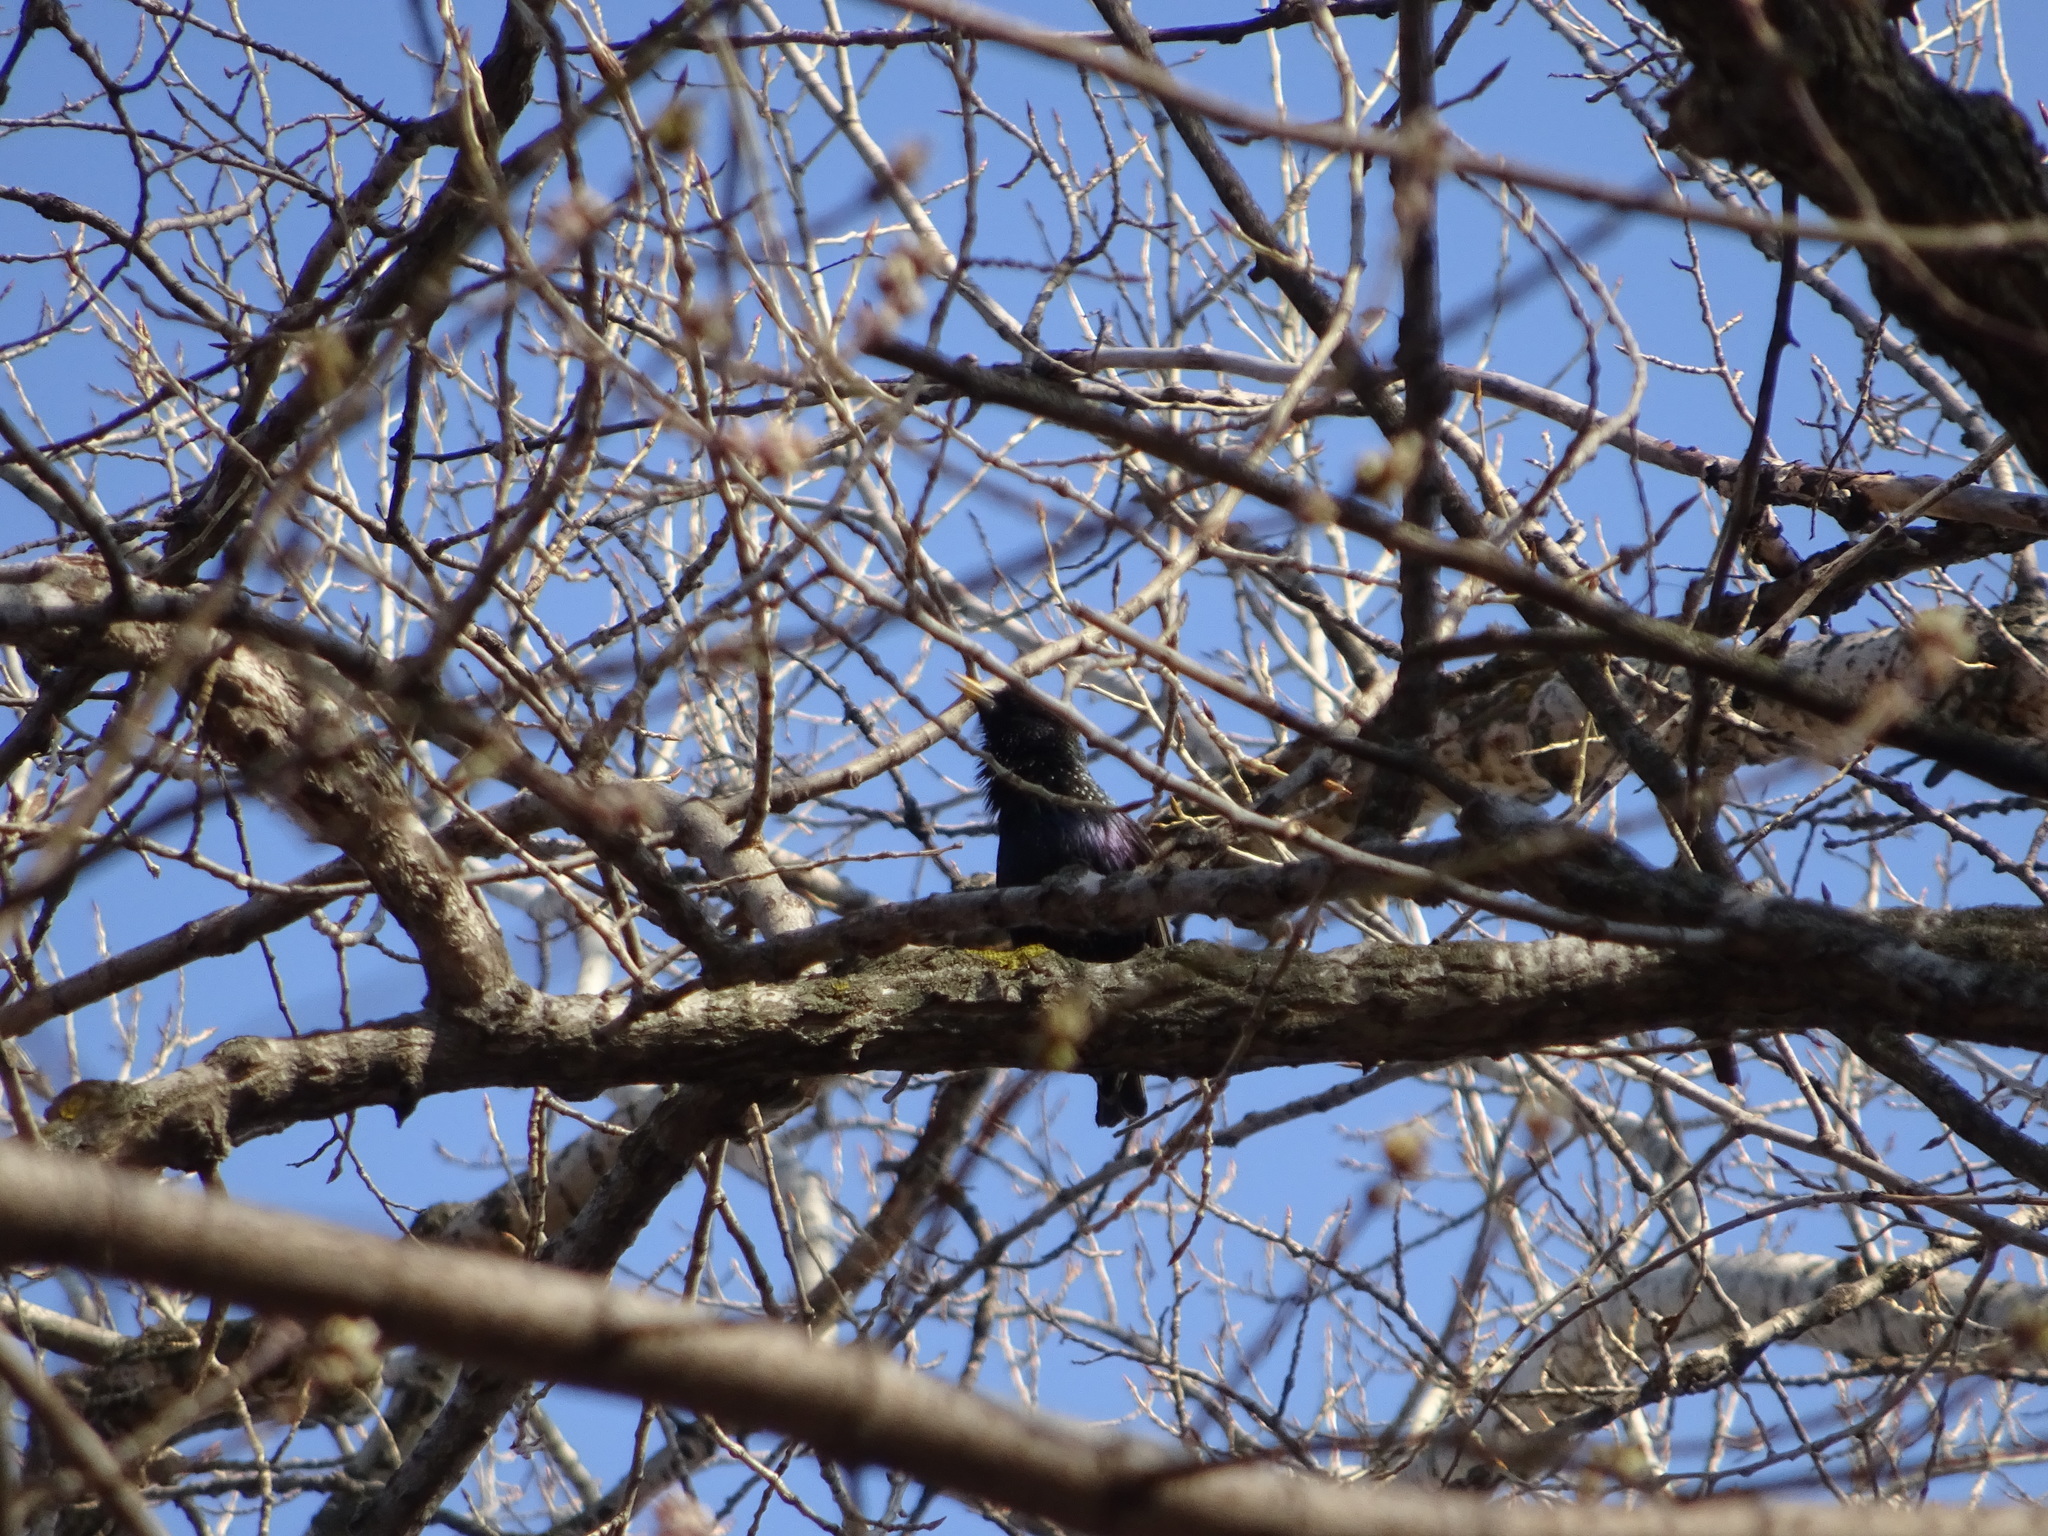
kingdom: Animalia
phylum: Chordata
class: Aves
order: Passeriformes
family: Sturnidae
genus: Sturnus
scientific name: Sturnus vulgaris
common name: Common starling
